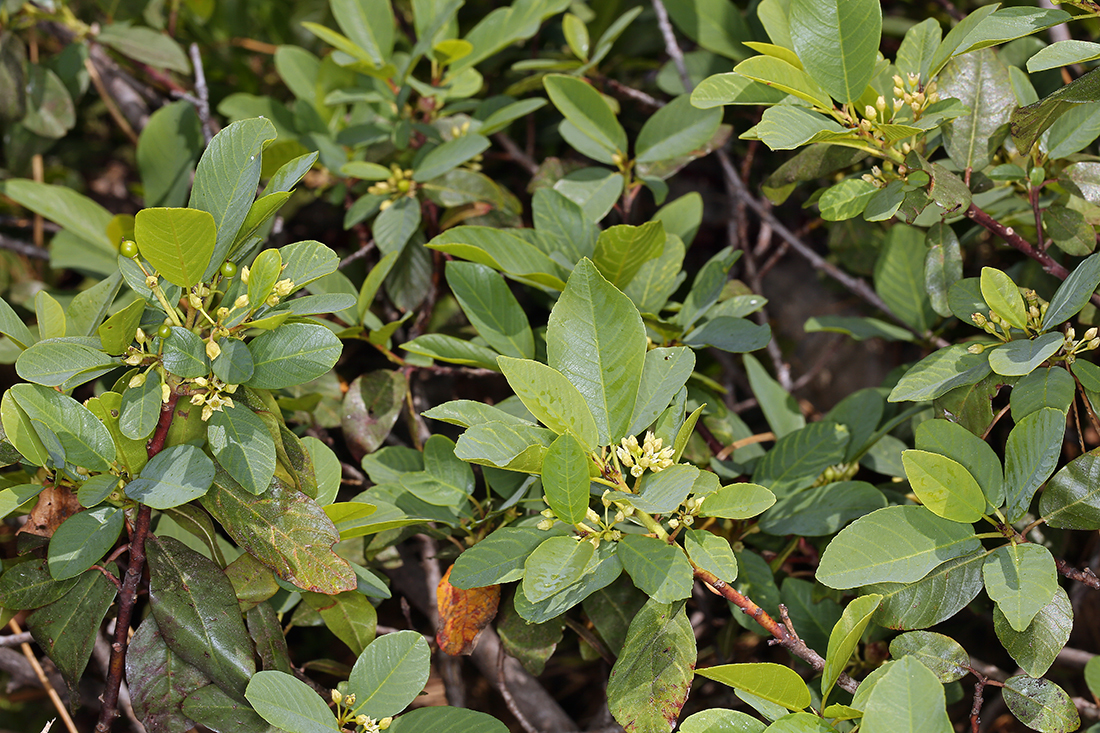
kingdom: Plantae
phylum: Tracheophyta
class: Magnoliopsida
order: Rosales
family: Rhamnaceae
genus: Frangula
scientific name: Frangula rubra
